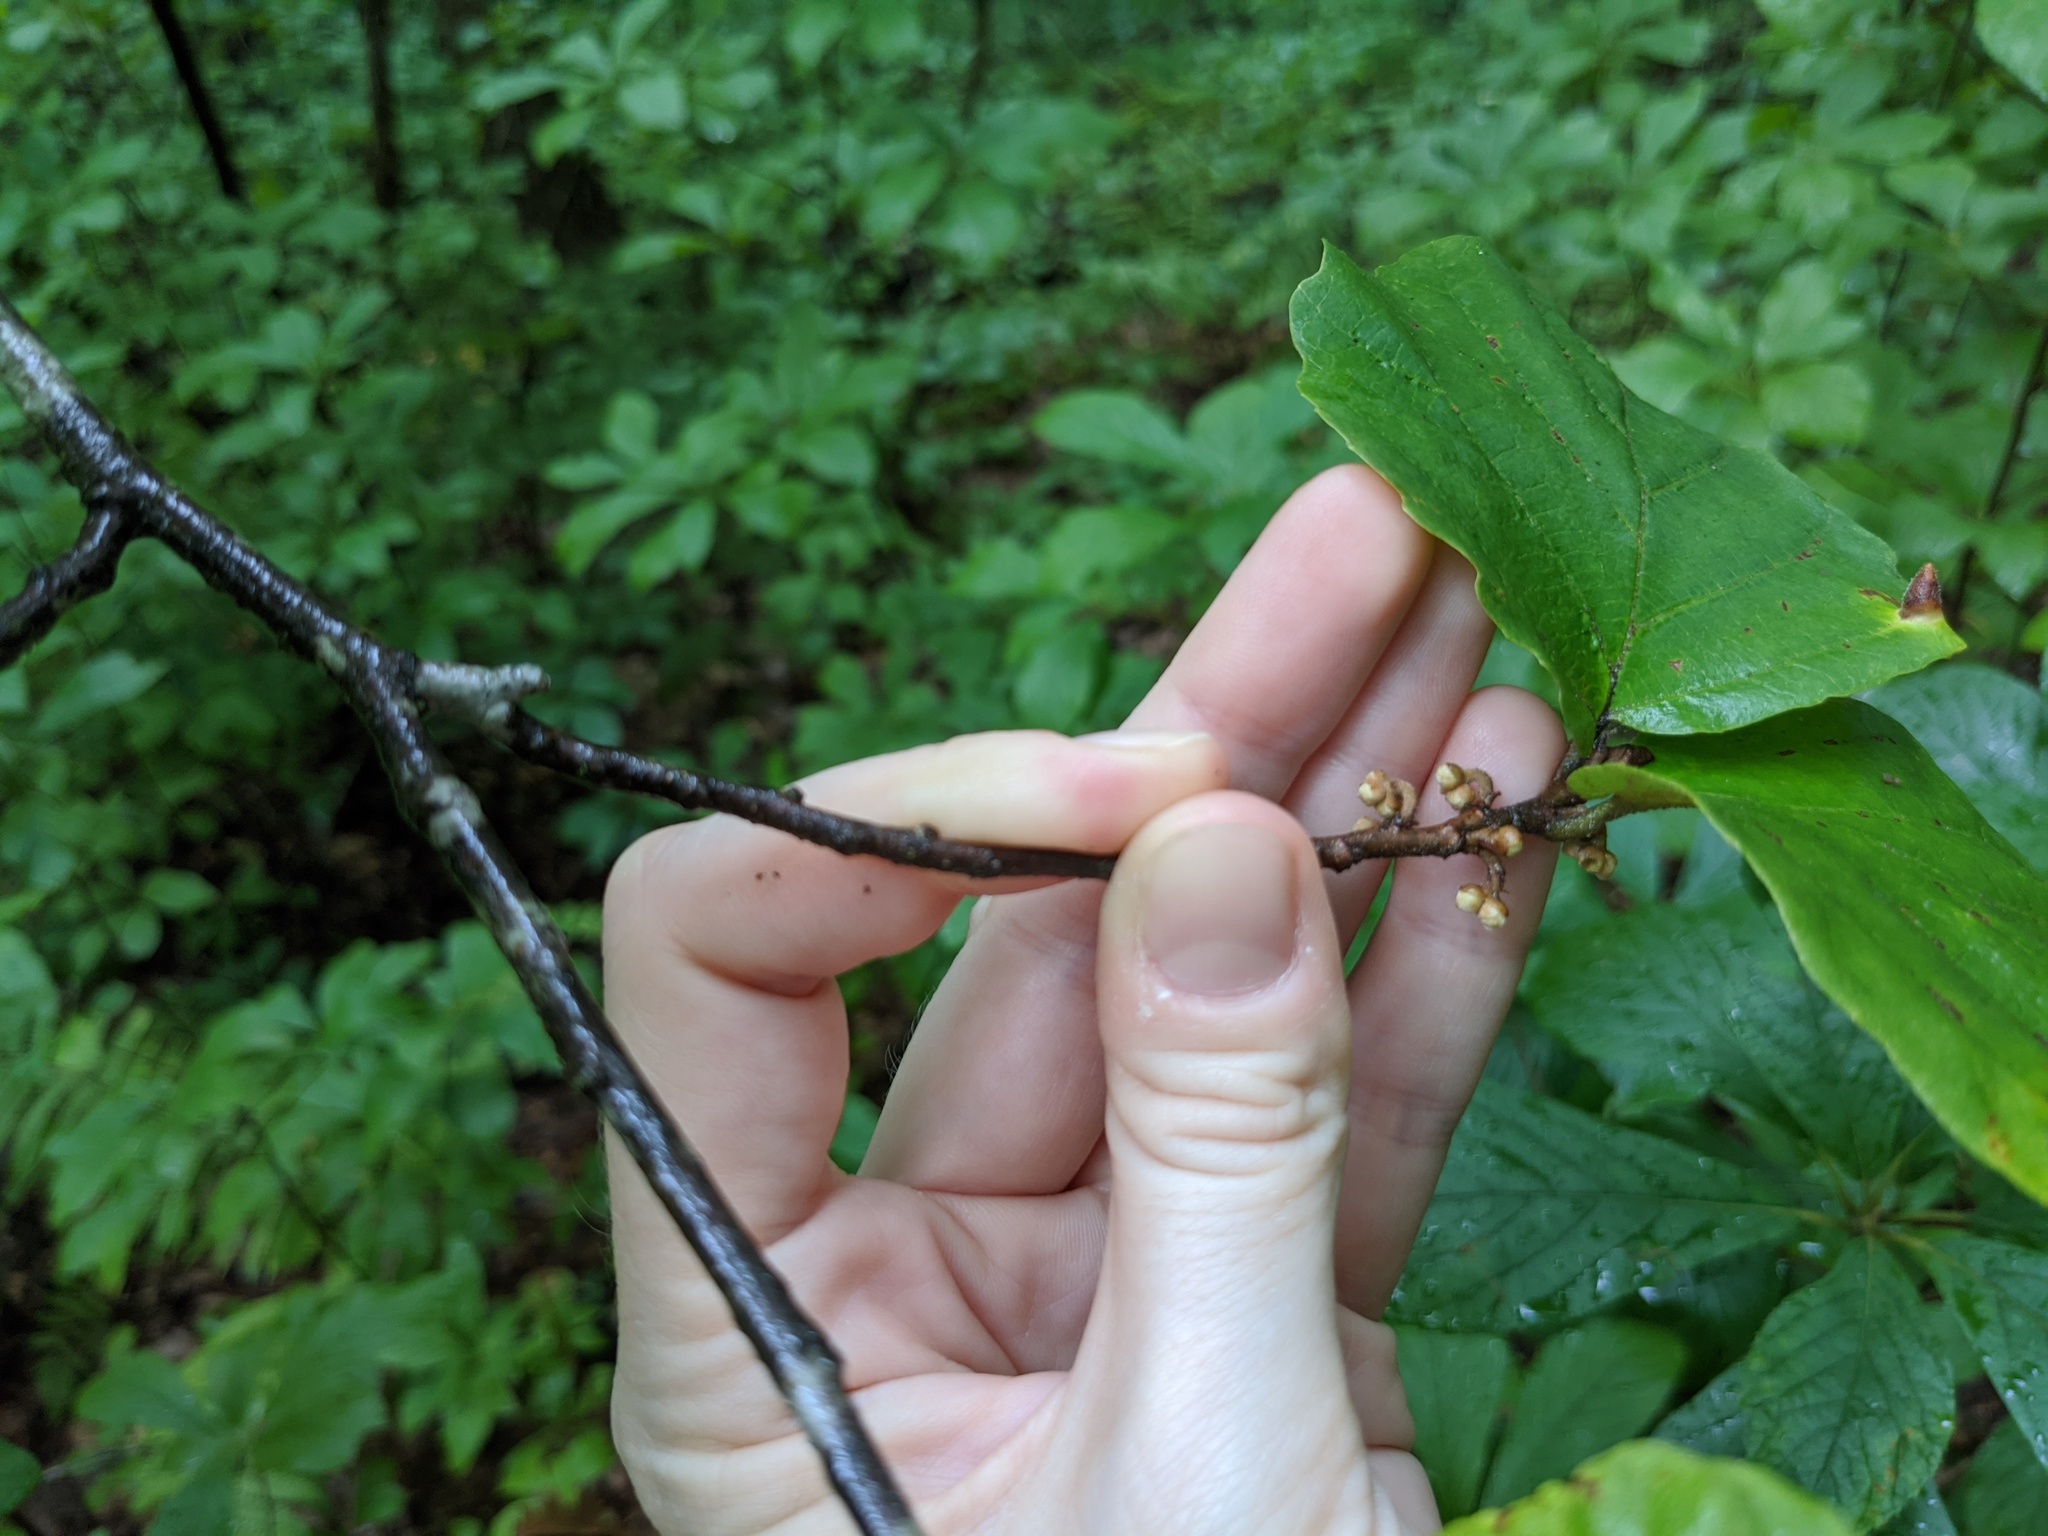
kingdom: Plantae
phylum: Tracheophyta
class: Magnoliopsida
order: Saxifragales
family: Hamamelidaceae
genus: Hamamelis
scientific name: Hamamelis virginiana
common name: Witch-hazel
